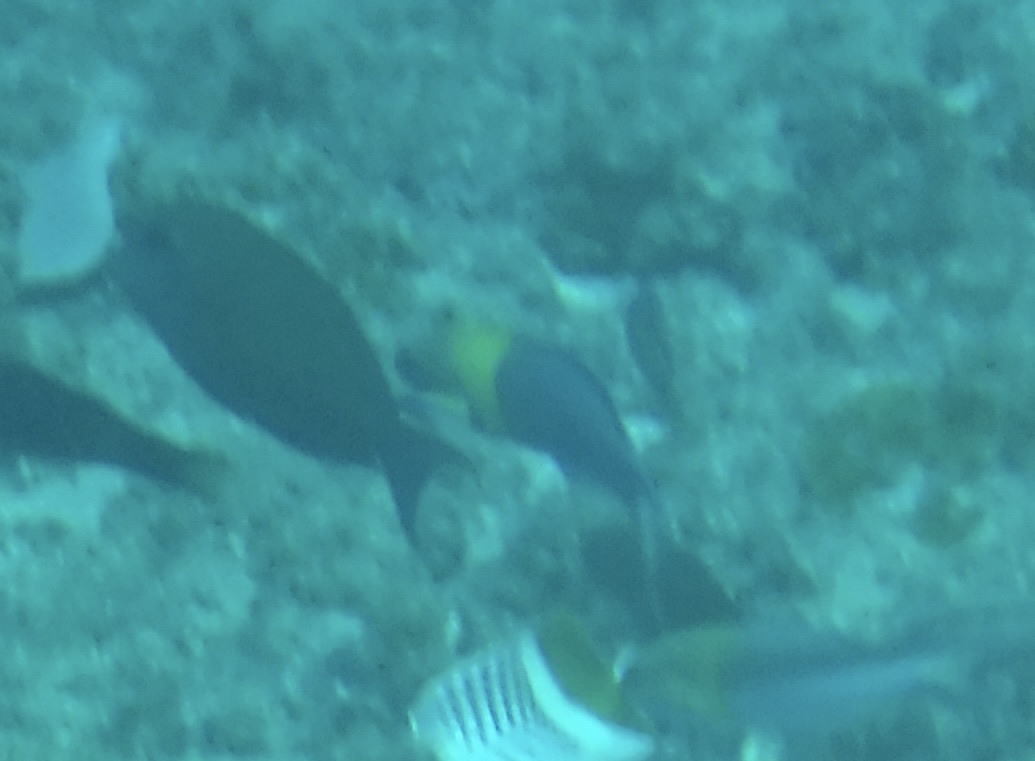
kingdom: Animalia
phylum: Chordata
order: Perciformes
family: Labridae
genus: Thalassoma
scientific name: Thalassoma amblycephalum
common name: Bluehead wrasse
